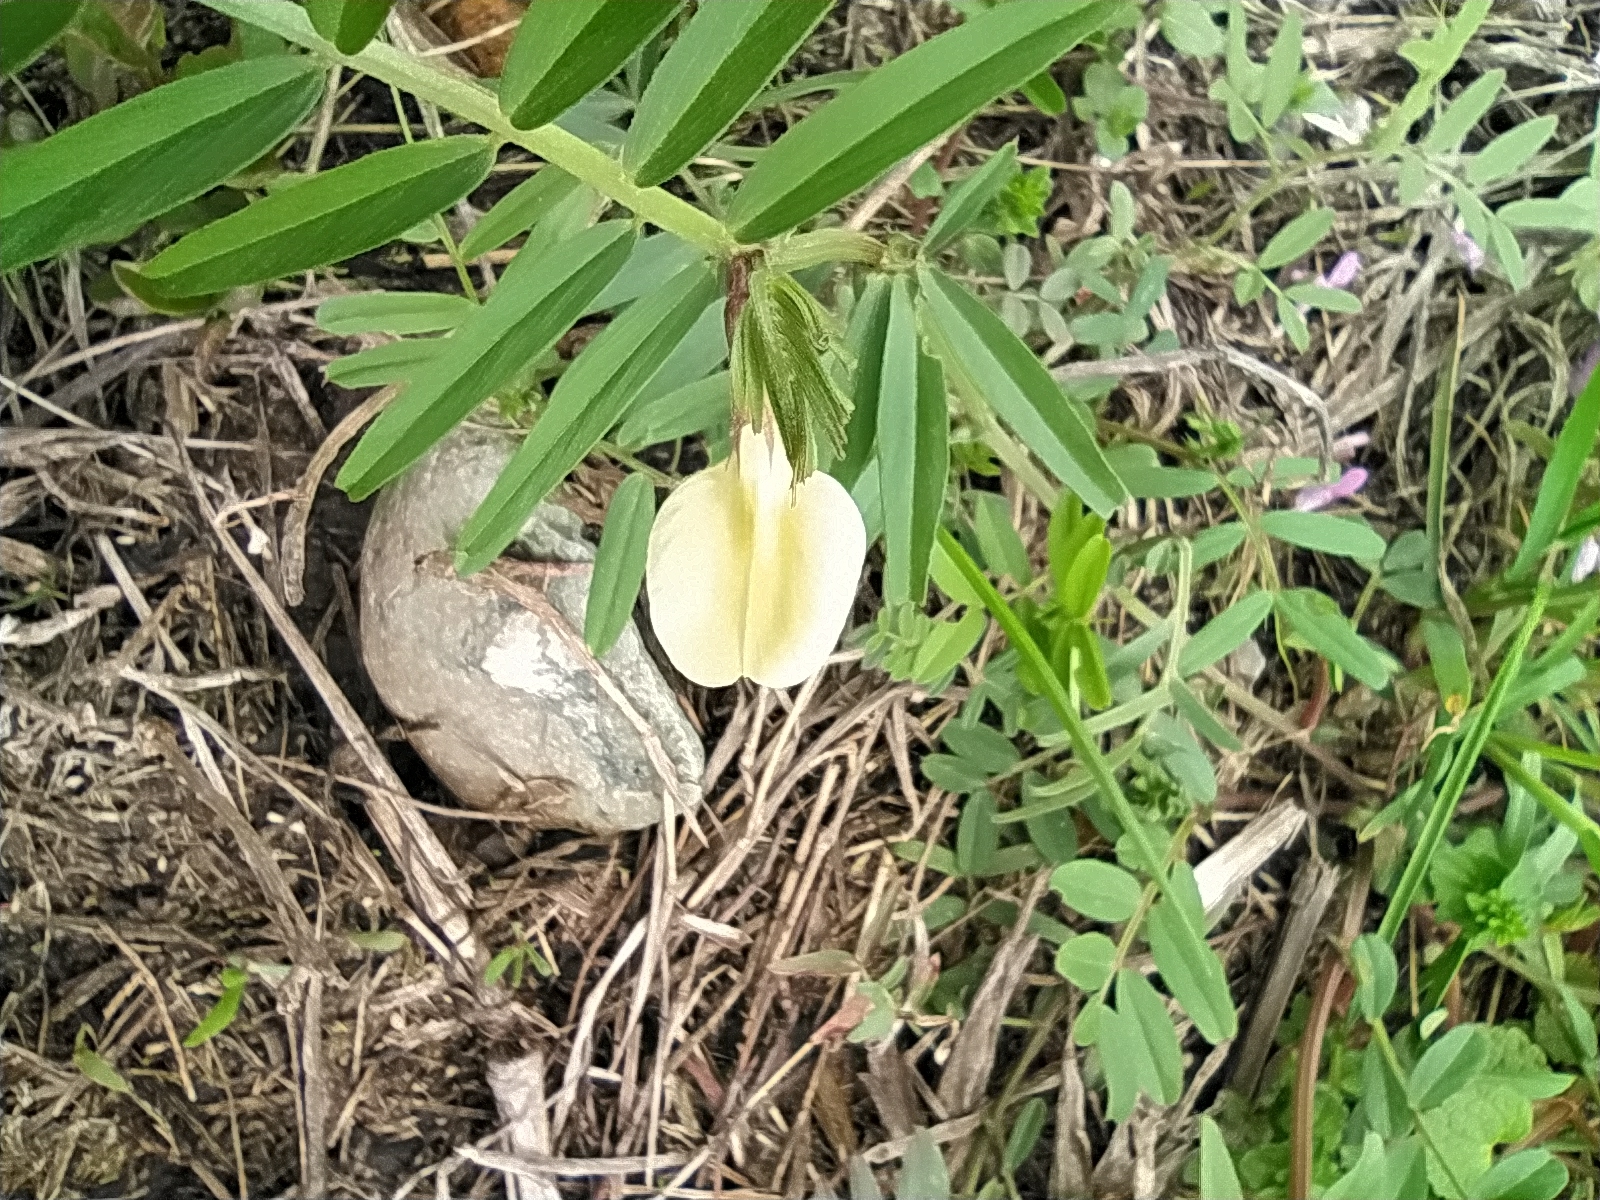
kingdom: Plantae
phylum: Tracheophyta
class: Magnoliopsida
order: Fabales
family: Fabaceae
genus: Vicia
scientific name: Vicia grandiflora
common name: Large yellow vetch
